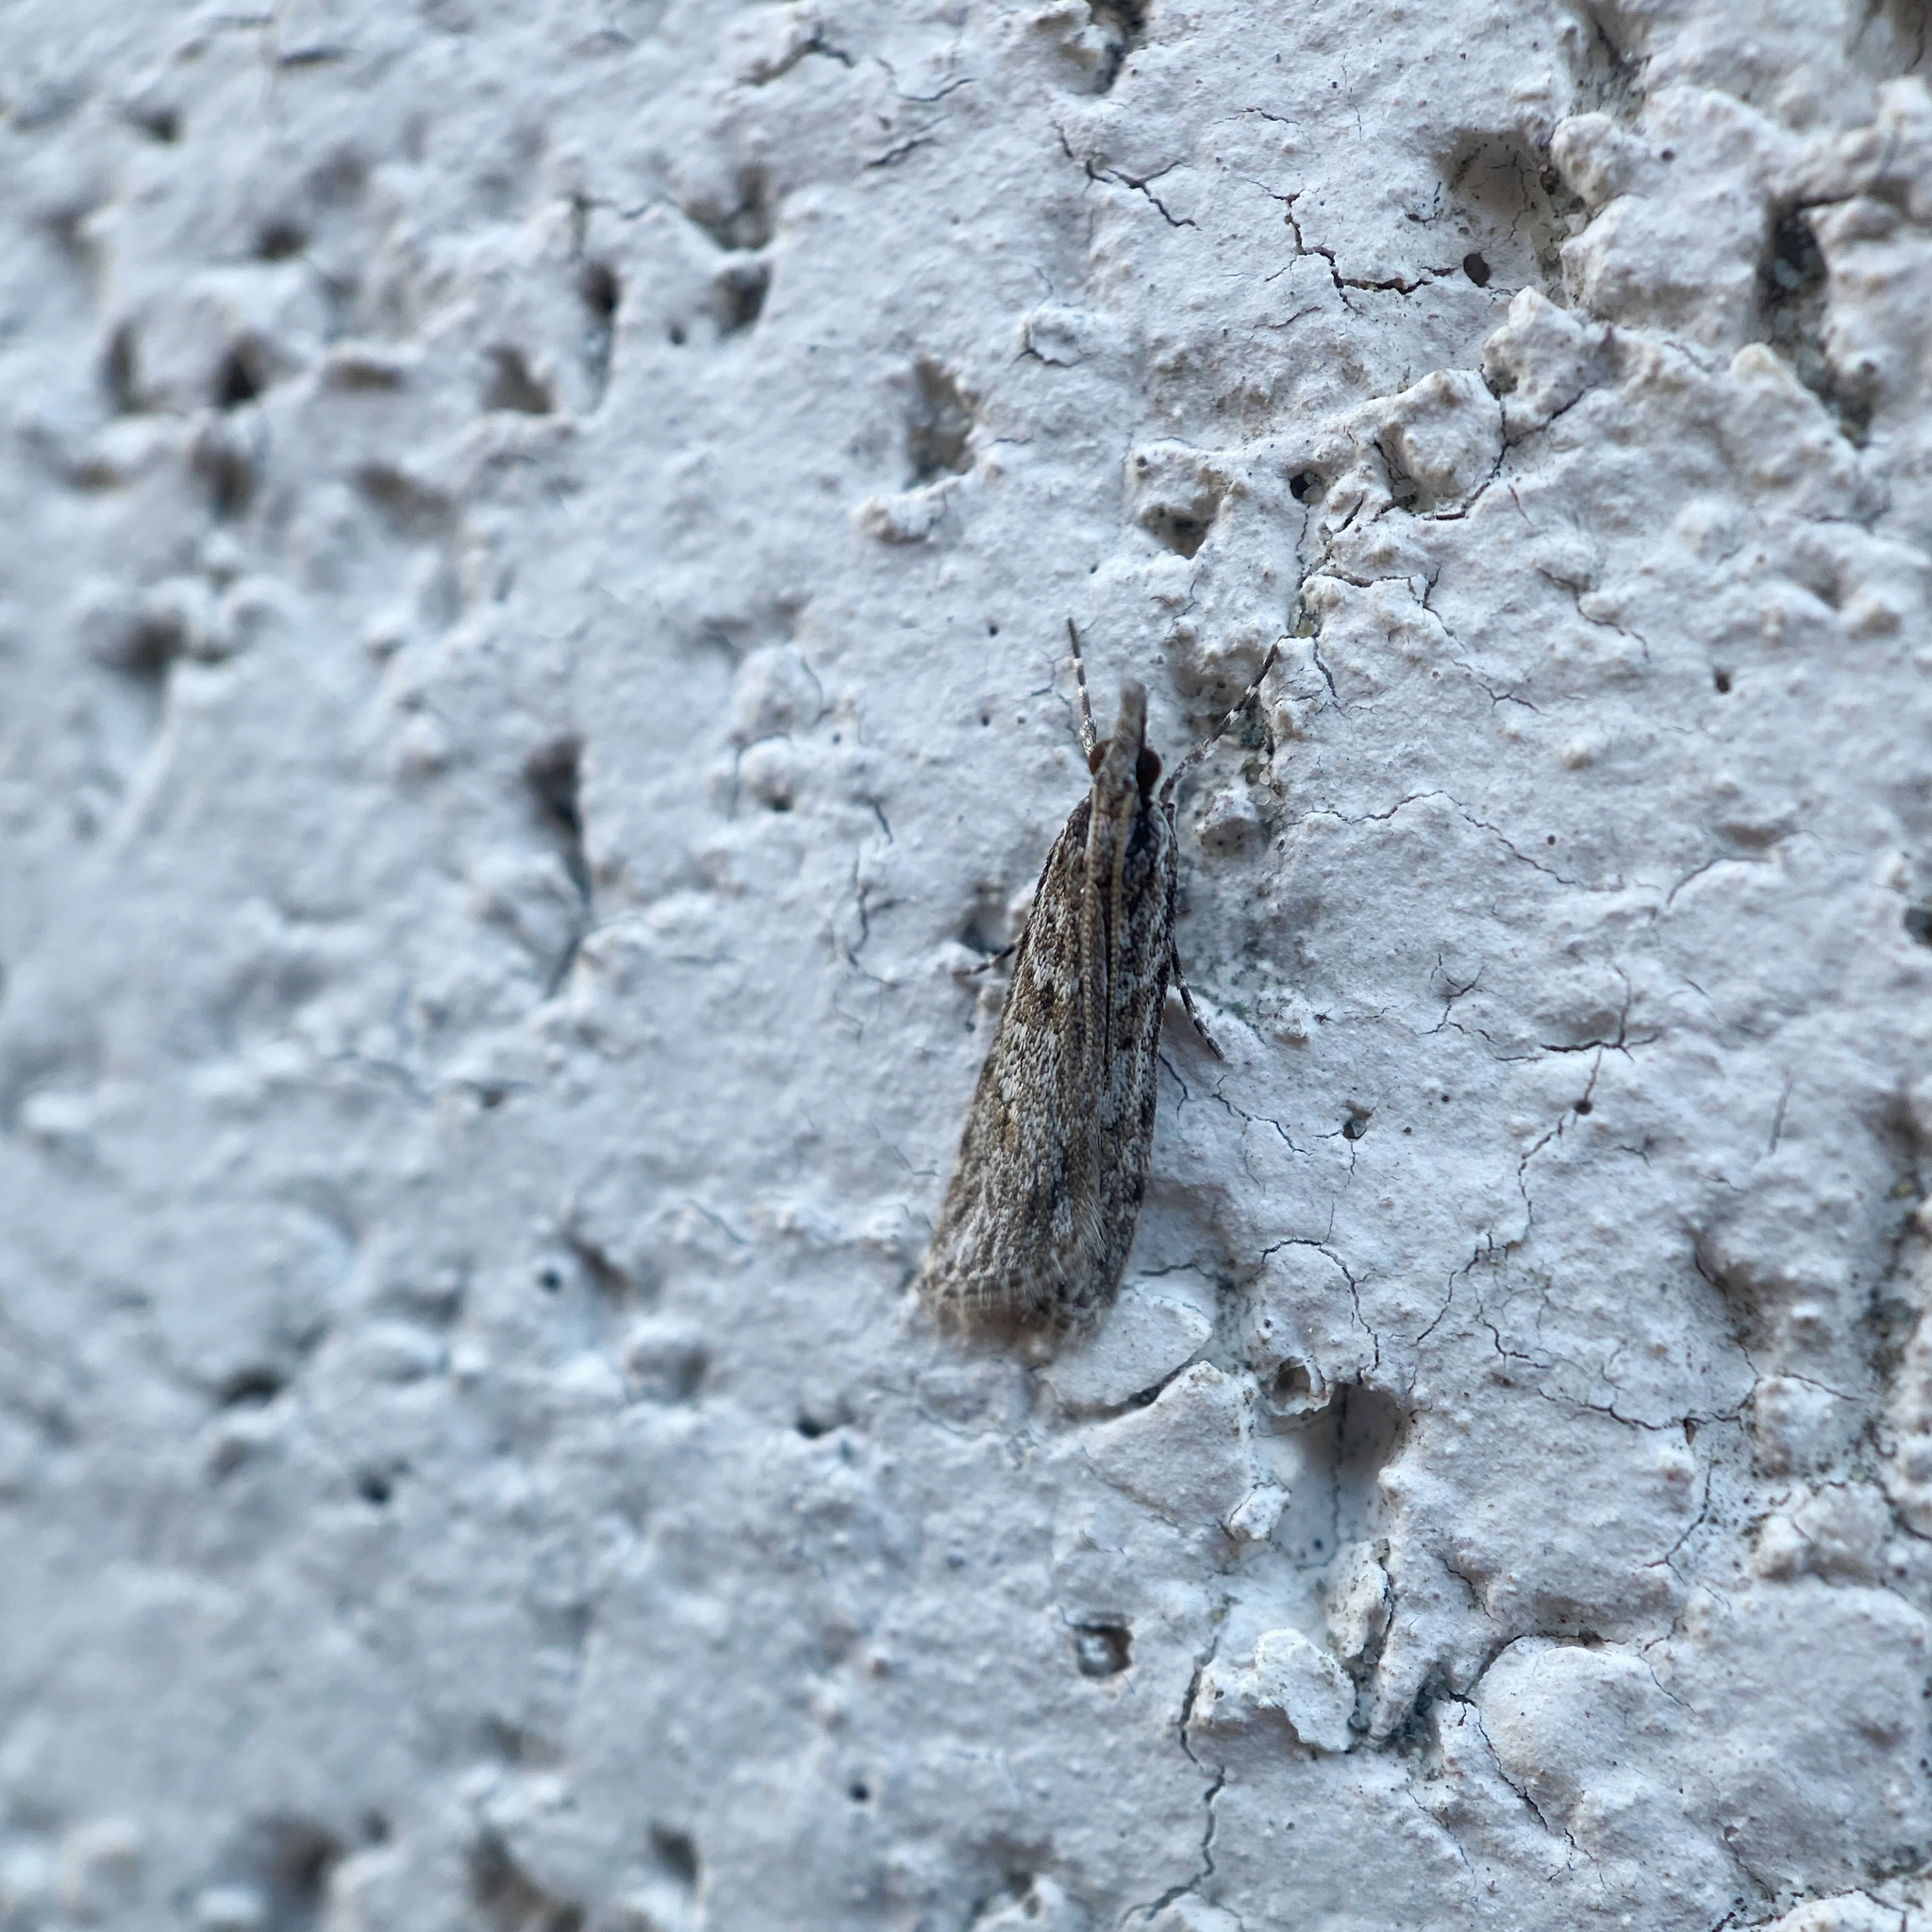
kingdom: Animalia
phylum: Arthropoda
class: Insecta
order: Lepidoptera
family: Crambidae
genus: Scoparia
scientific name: Scoparia chalicodes
